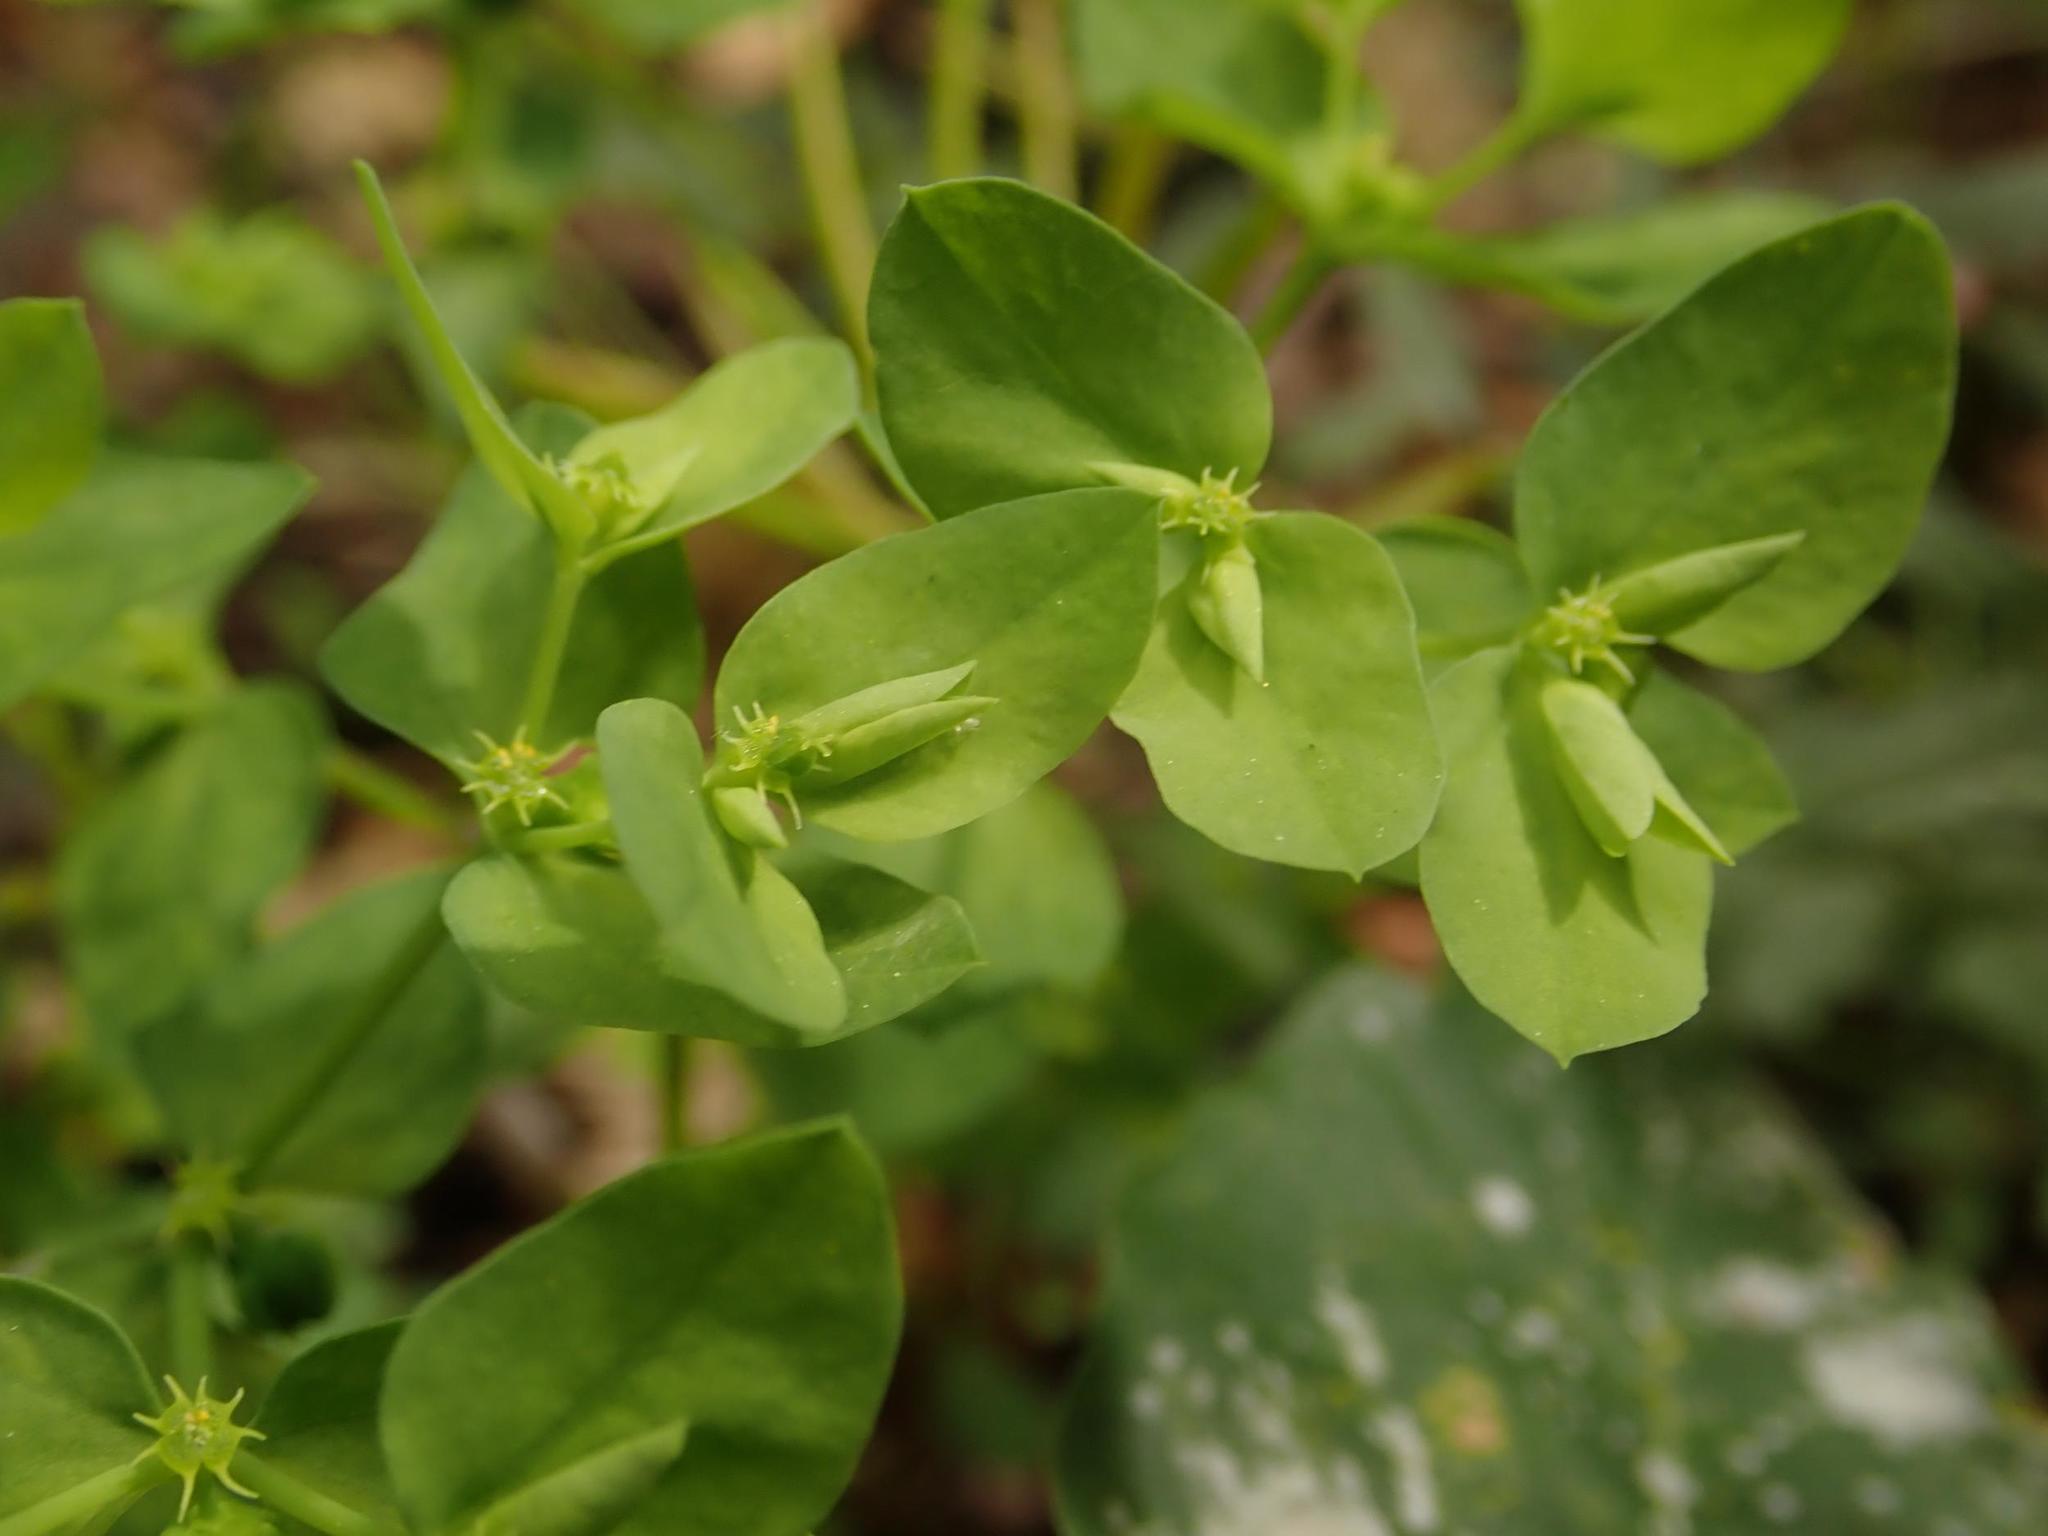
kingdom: Plantae
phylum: Tracheophyta
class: Magnoliopsida
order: Malpighiales
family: Euphorbiaceae
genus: Euphorbia
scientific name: Euphorbia peplus
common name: Petty spurge
